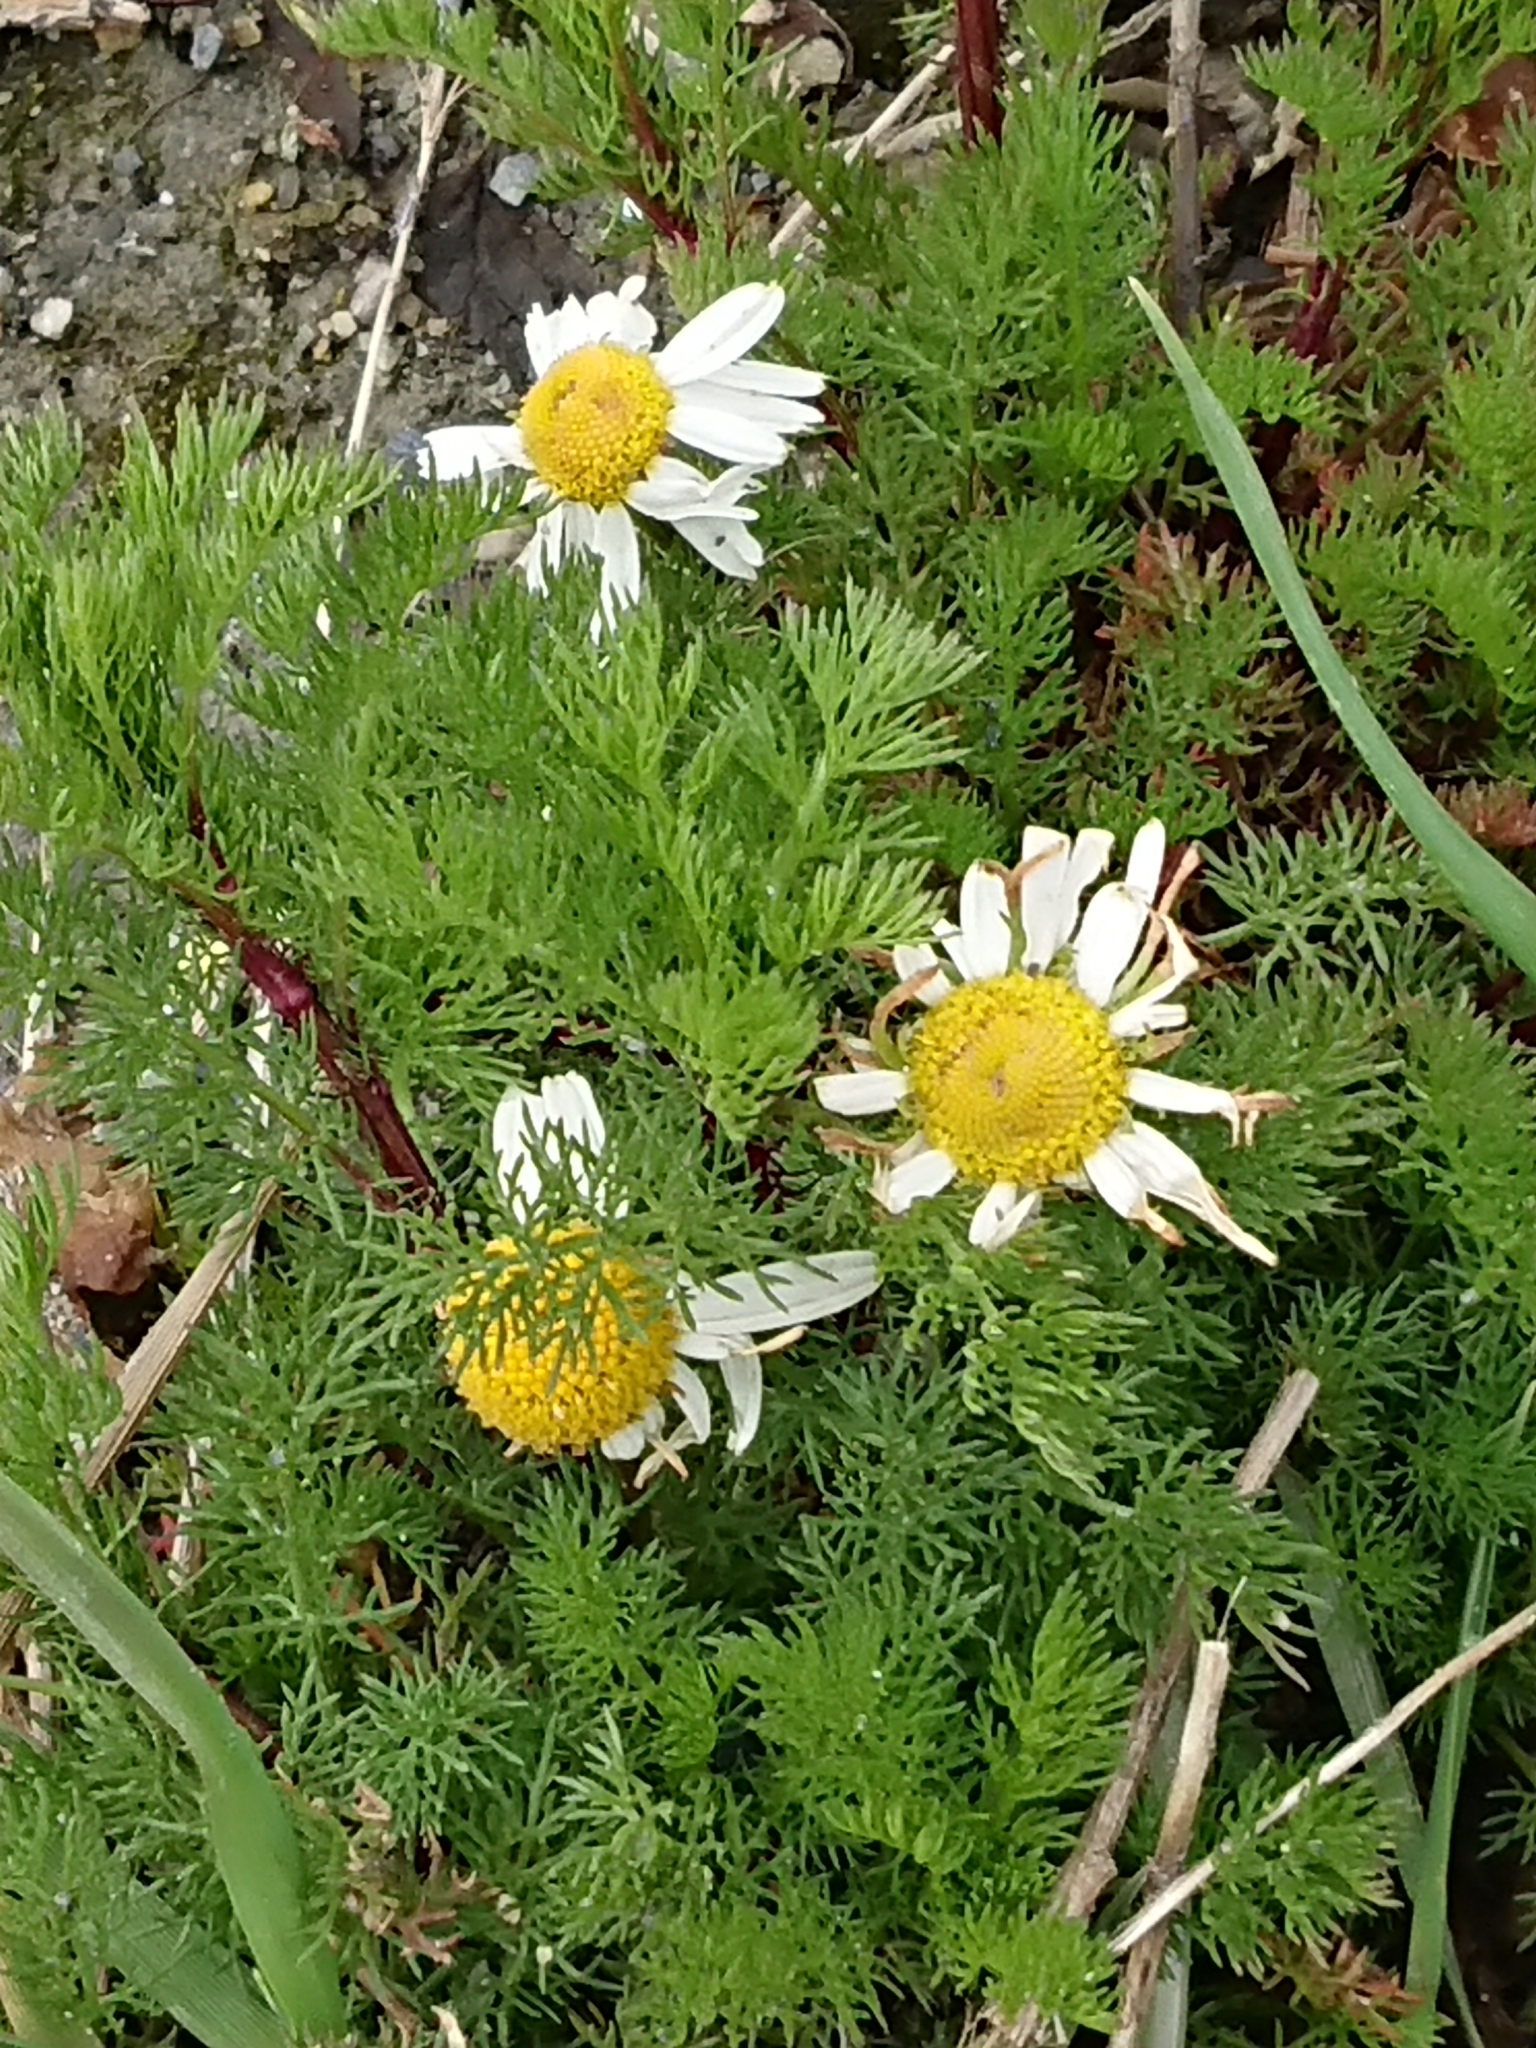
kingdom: Plantae
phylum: Tracheophyta
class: Magnoliopsida
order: Asterales
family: Asteraceae
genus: Tripleurospermum
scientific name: Tripleurospermum inodorum
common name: Scentless mayweed
